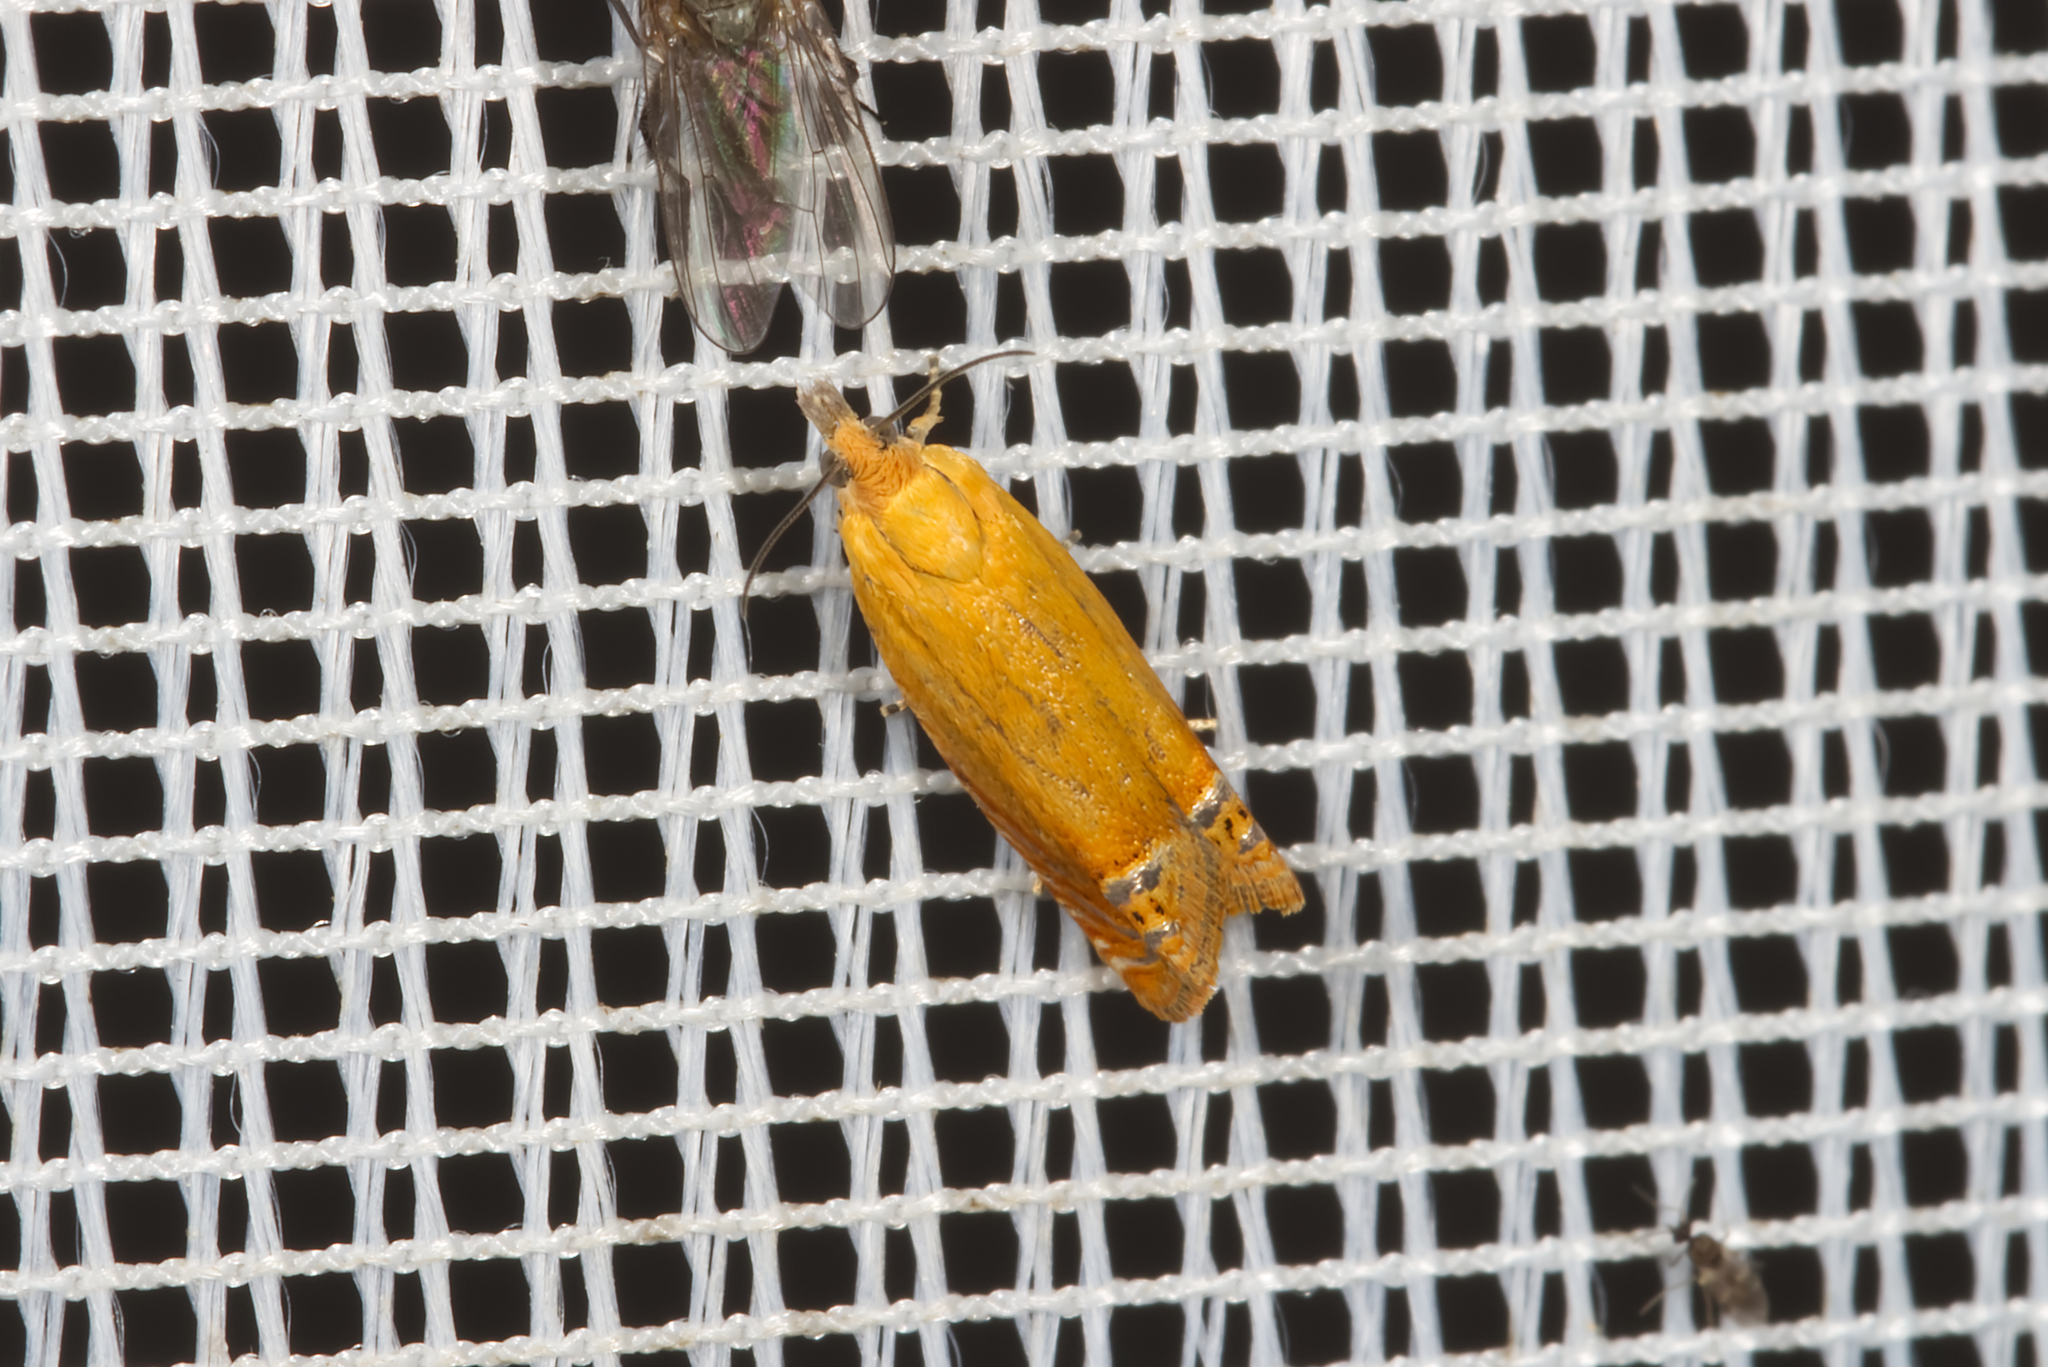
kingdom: Animalia
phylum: Arthropoda
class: Insecta
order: Lepidoptera
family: Tortricidae
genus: Lathronympha
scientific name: Lathronympha strigana
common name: Red piercer
